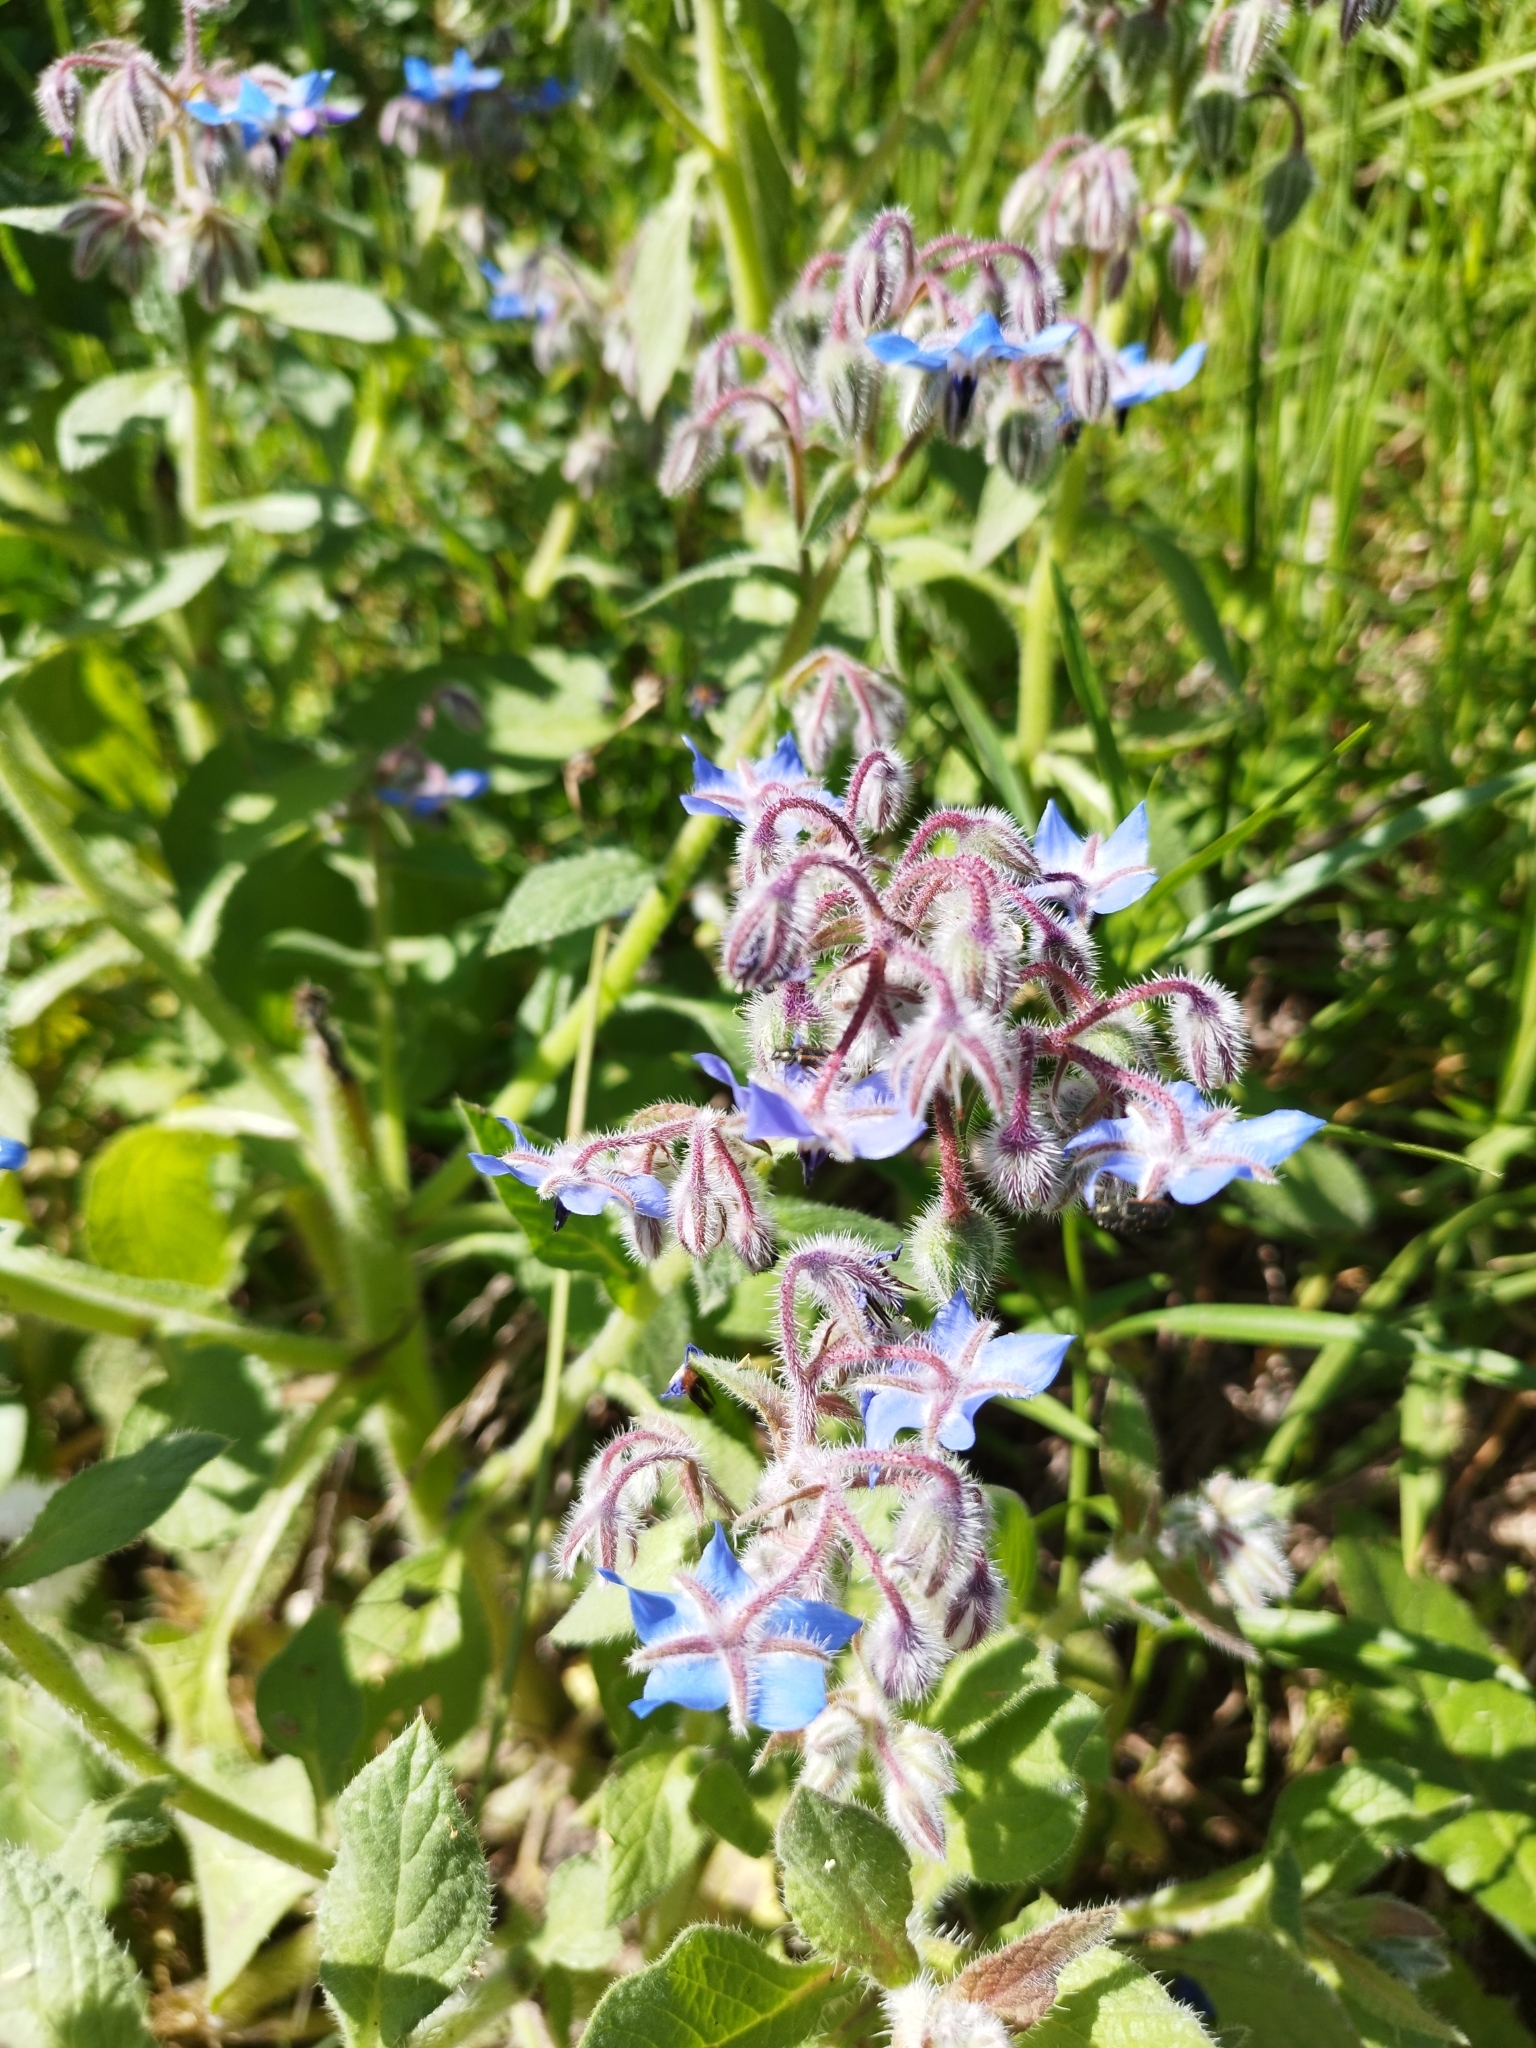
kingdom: Plantae
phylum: Tracheophyta
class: Magnoliopsida
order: Boraginales
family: Boraginaceae
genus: Borago
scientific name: Borago officinalis
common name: Borage
